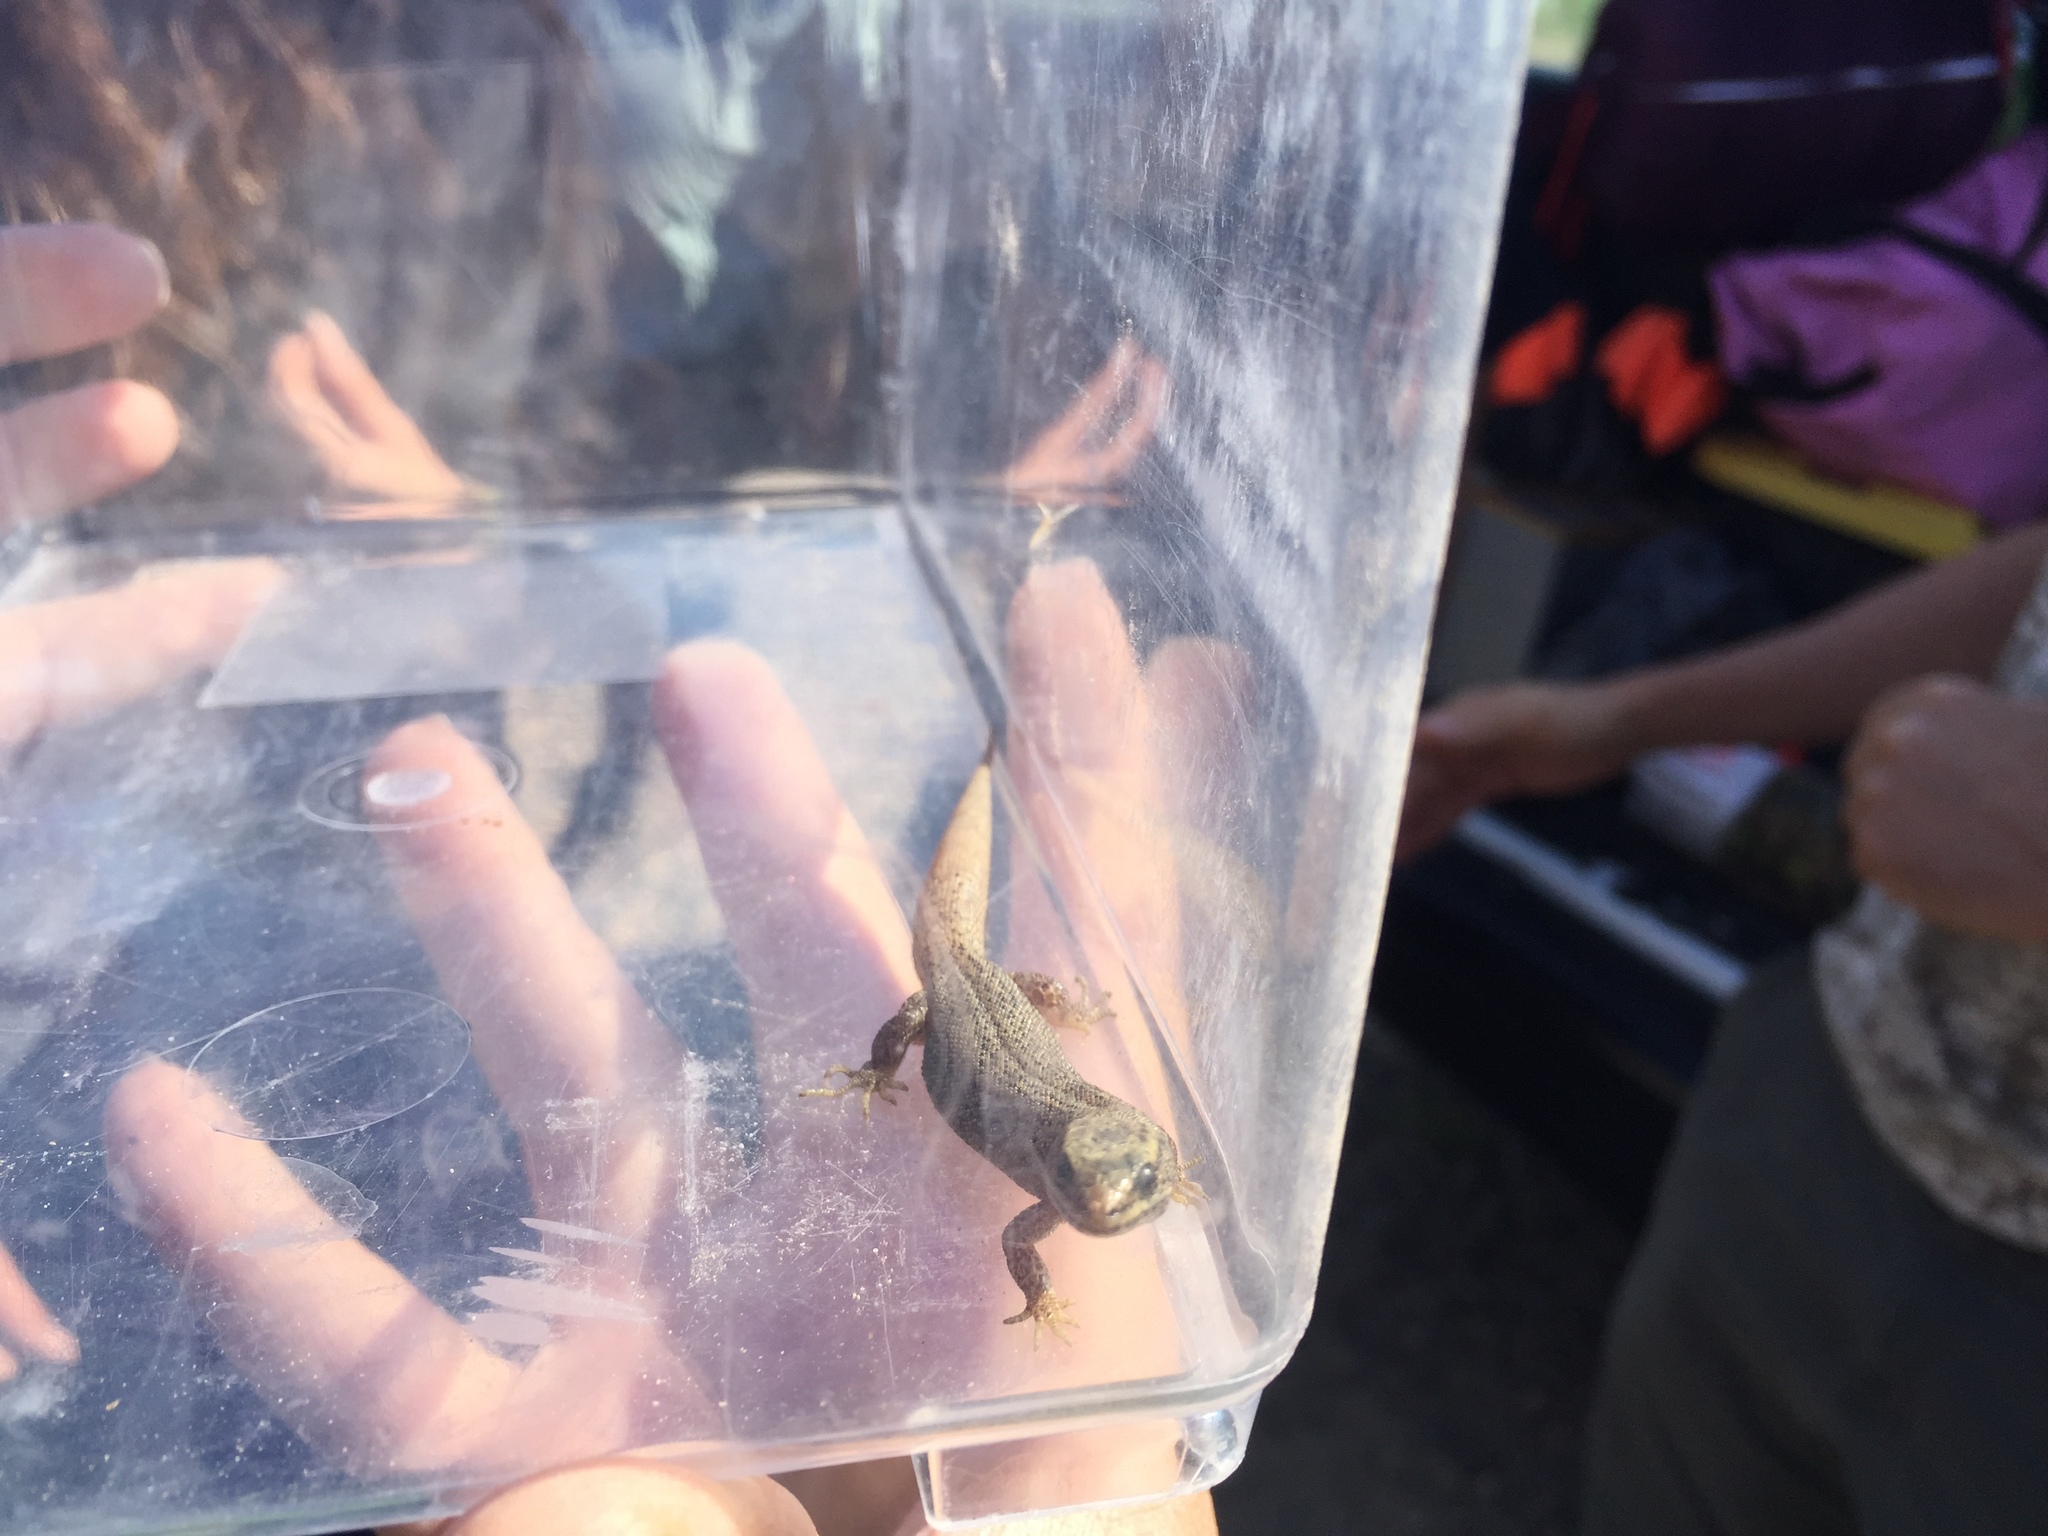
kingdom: Animalia
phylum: Chordata
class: Squamata
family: Xantusiidae
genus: Xantusia
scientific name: Xantusia vigilis
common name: Desert night lizard
